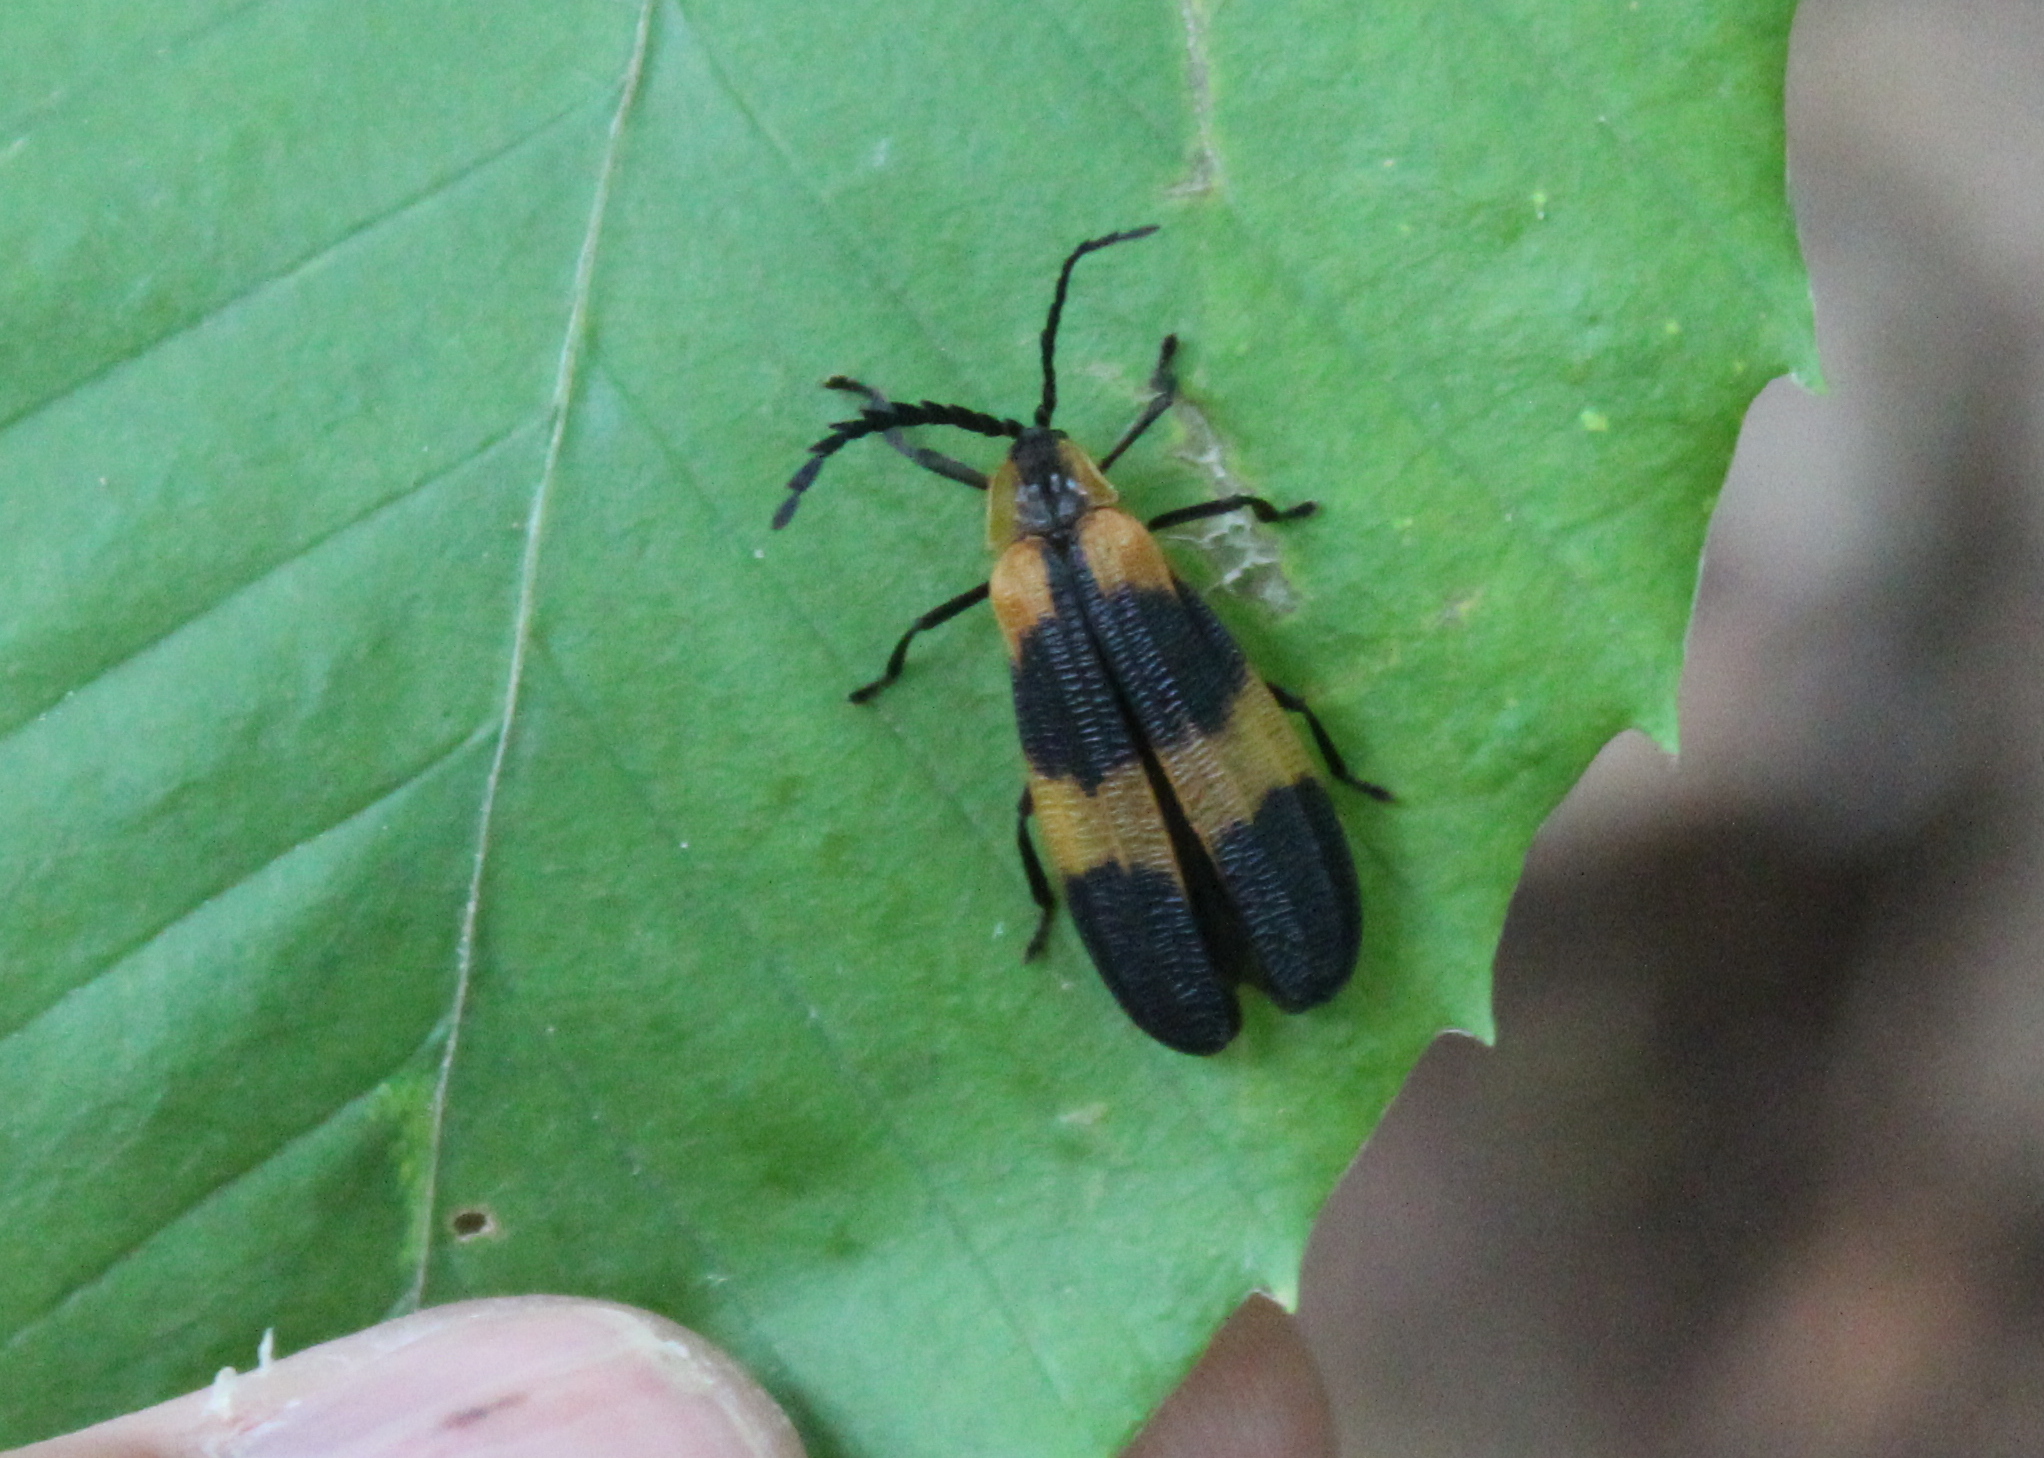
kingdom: Animalia
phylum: Arthropoda
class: Insecta
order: Coleoptera
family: Lycidae
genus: Calopteron
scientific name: Calopteron reticulatum
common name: Banded net-winged beetle
